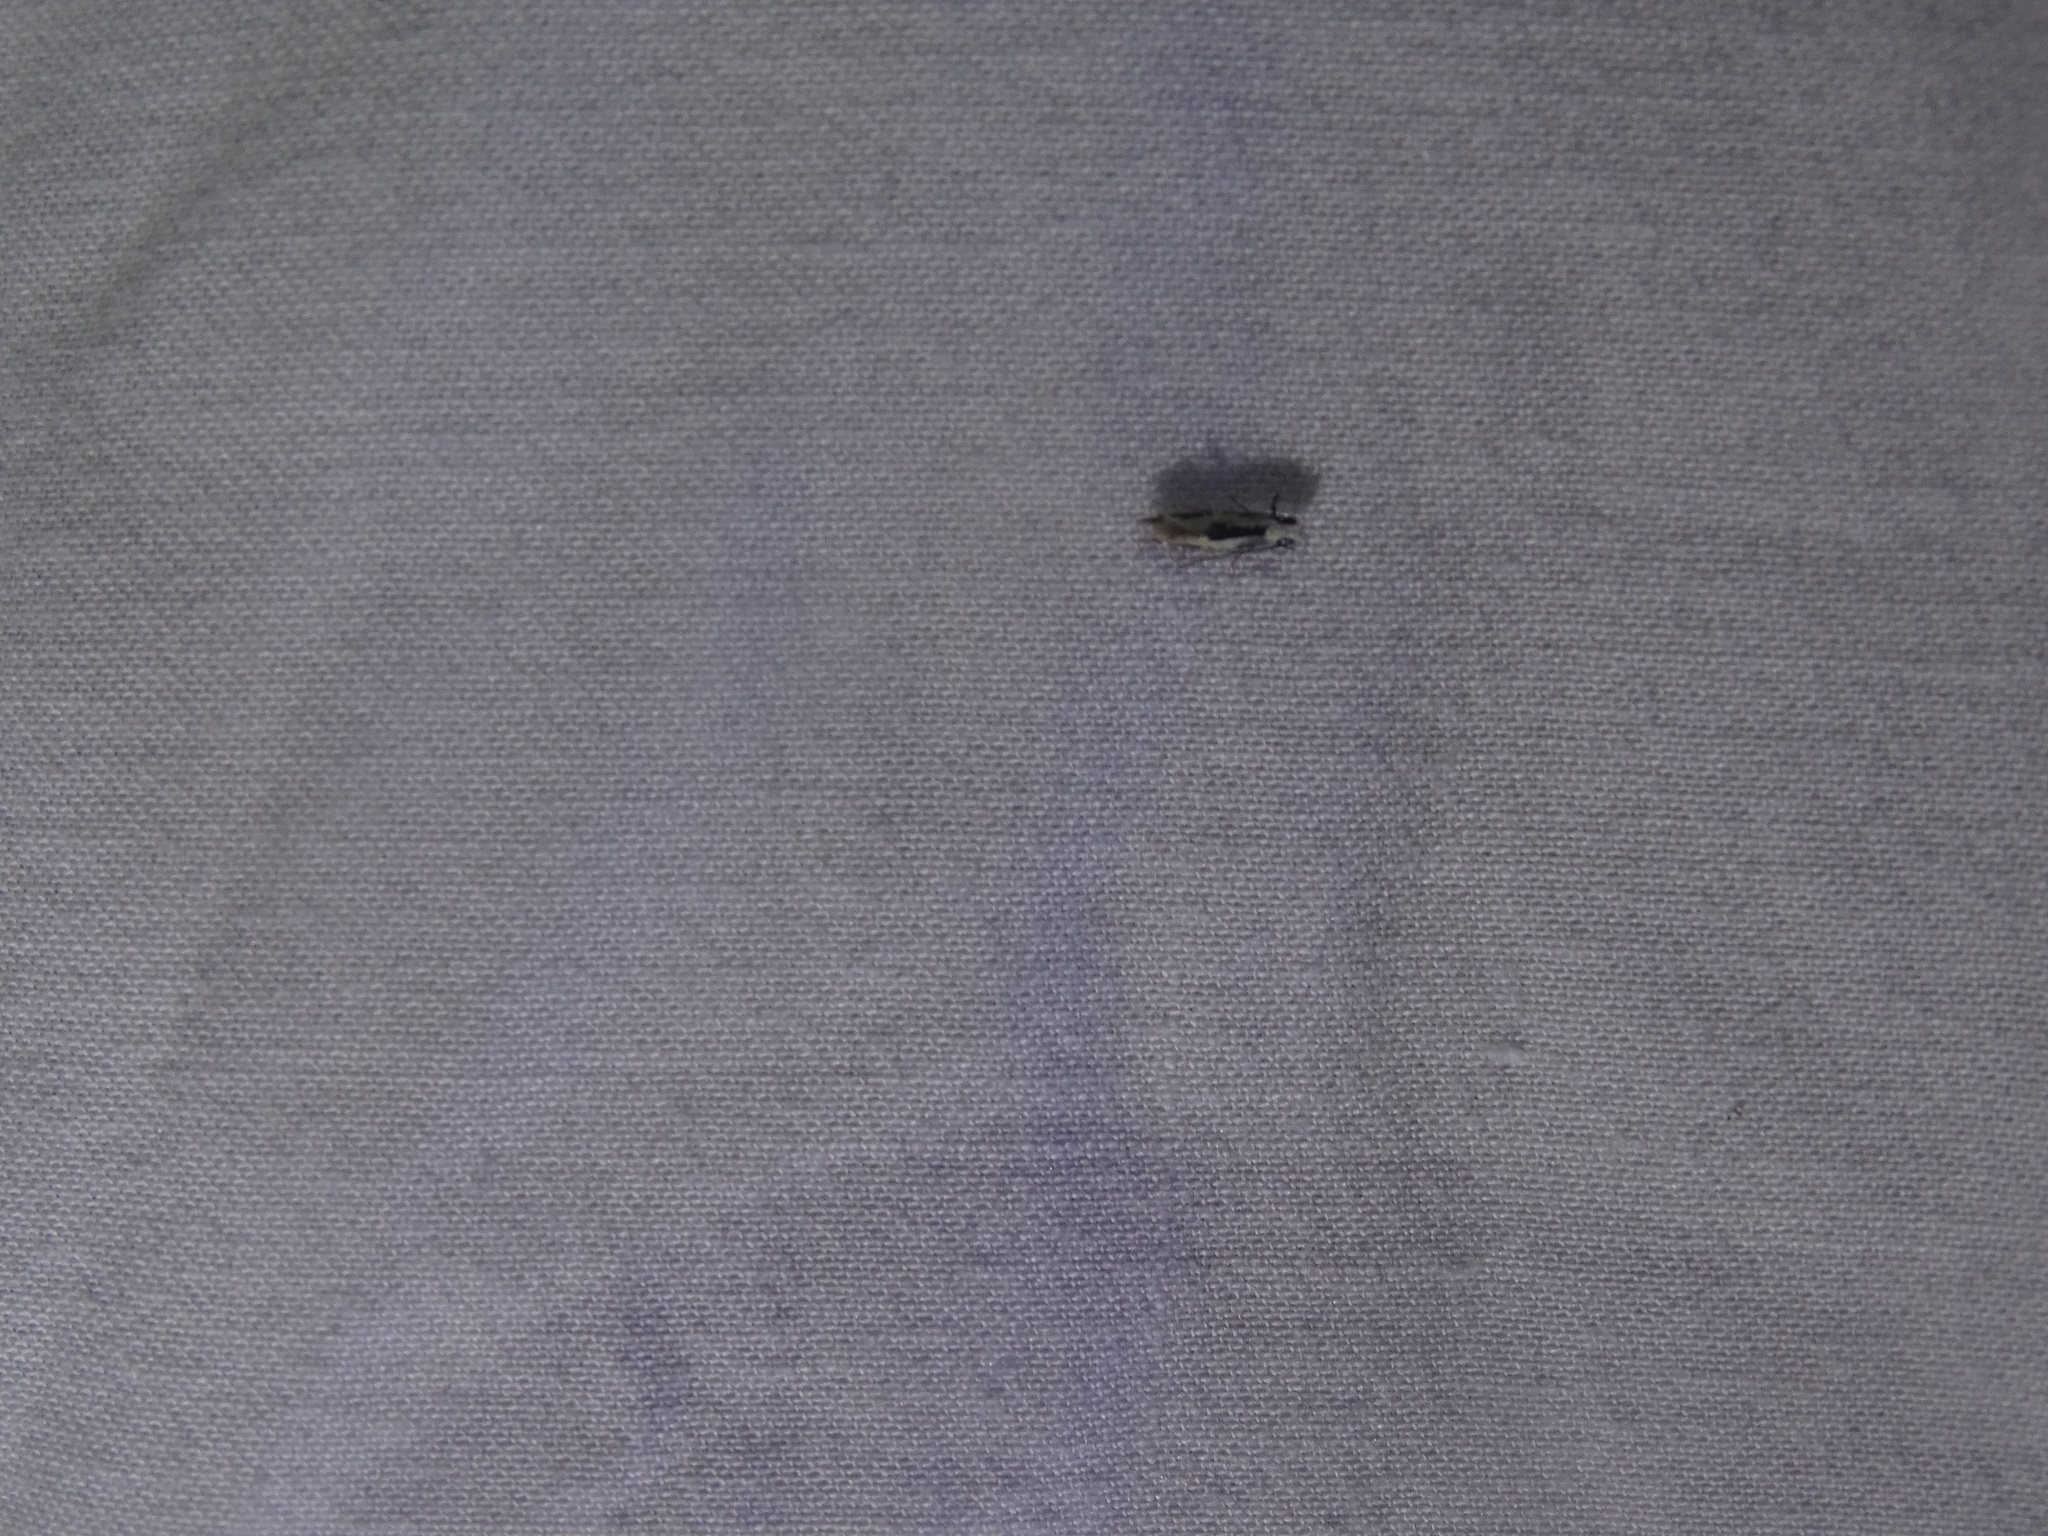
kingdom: Animalia
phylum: Arthropoda
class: Insecta
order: Lepidoptera
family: Meessiidae
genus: Mea
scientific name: Mea bipunctella
